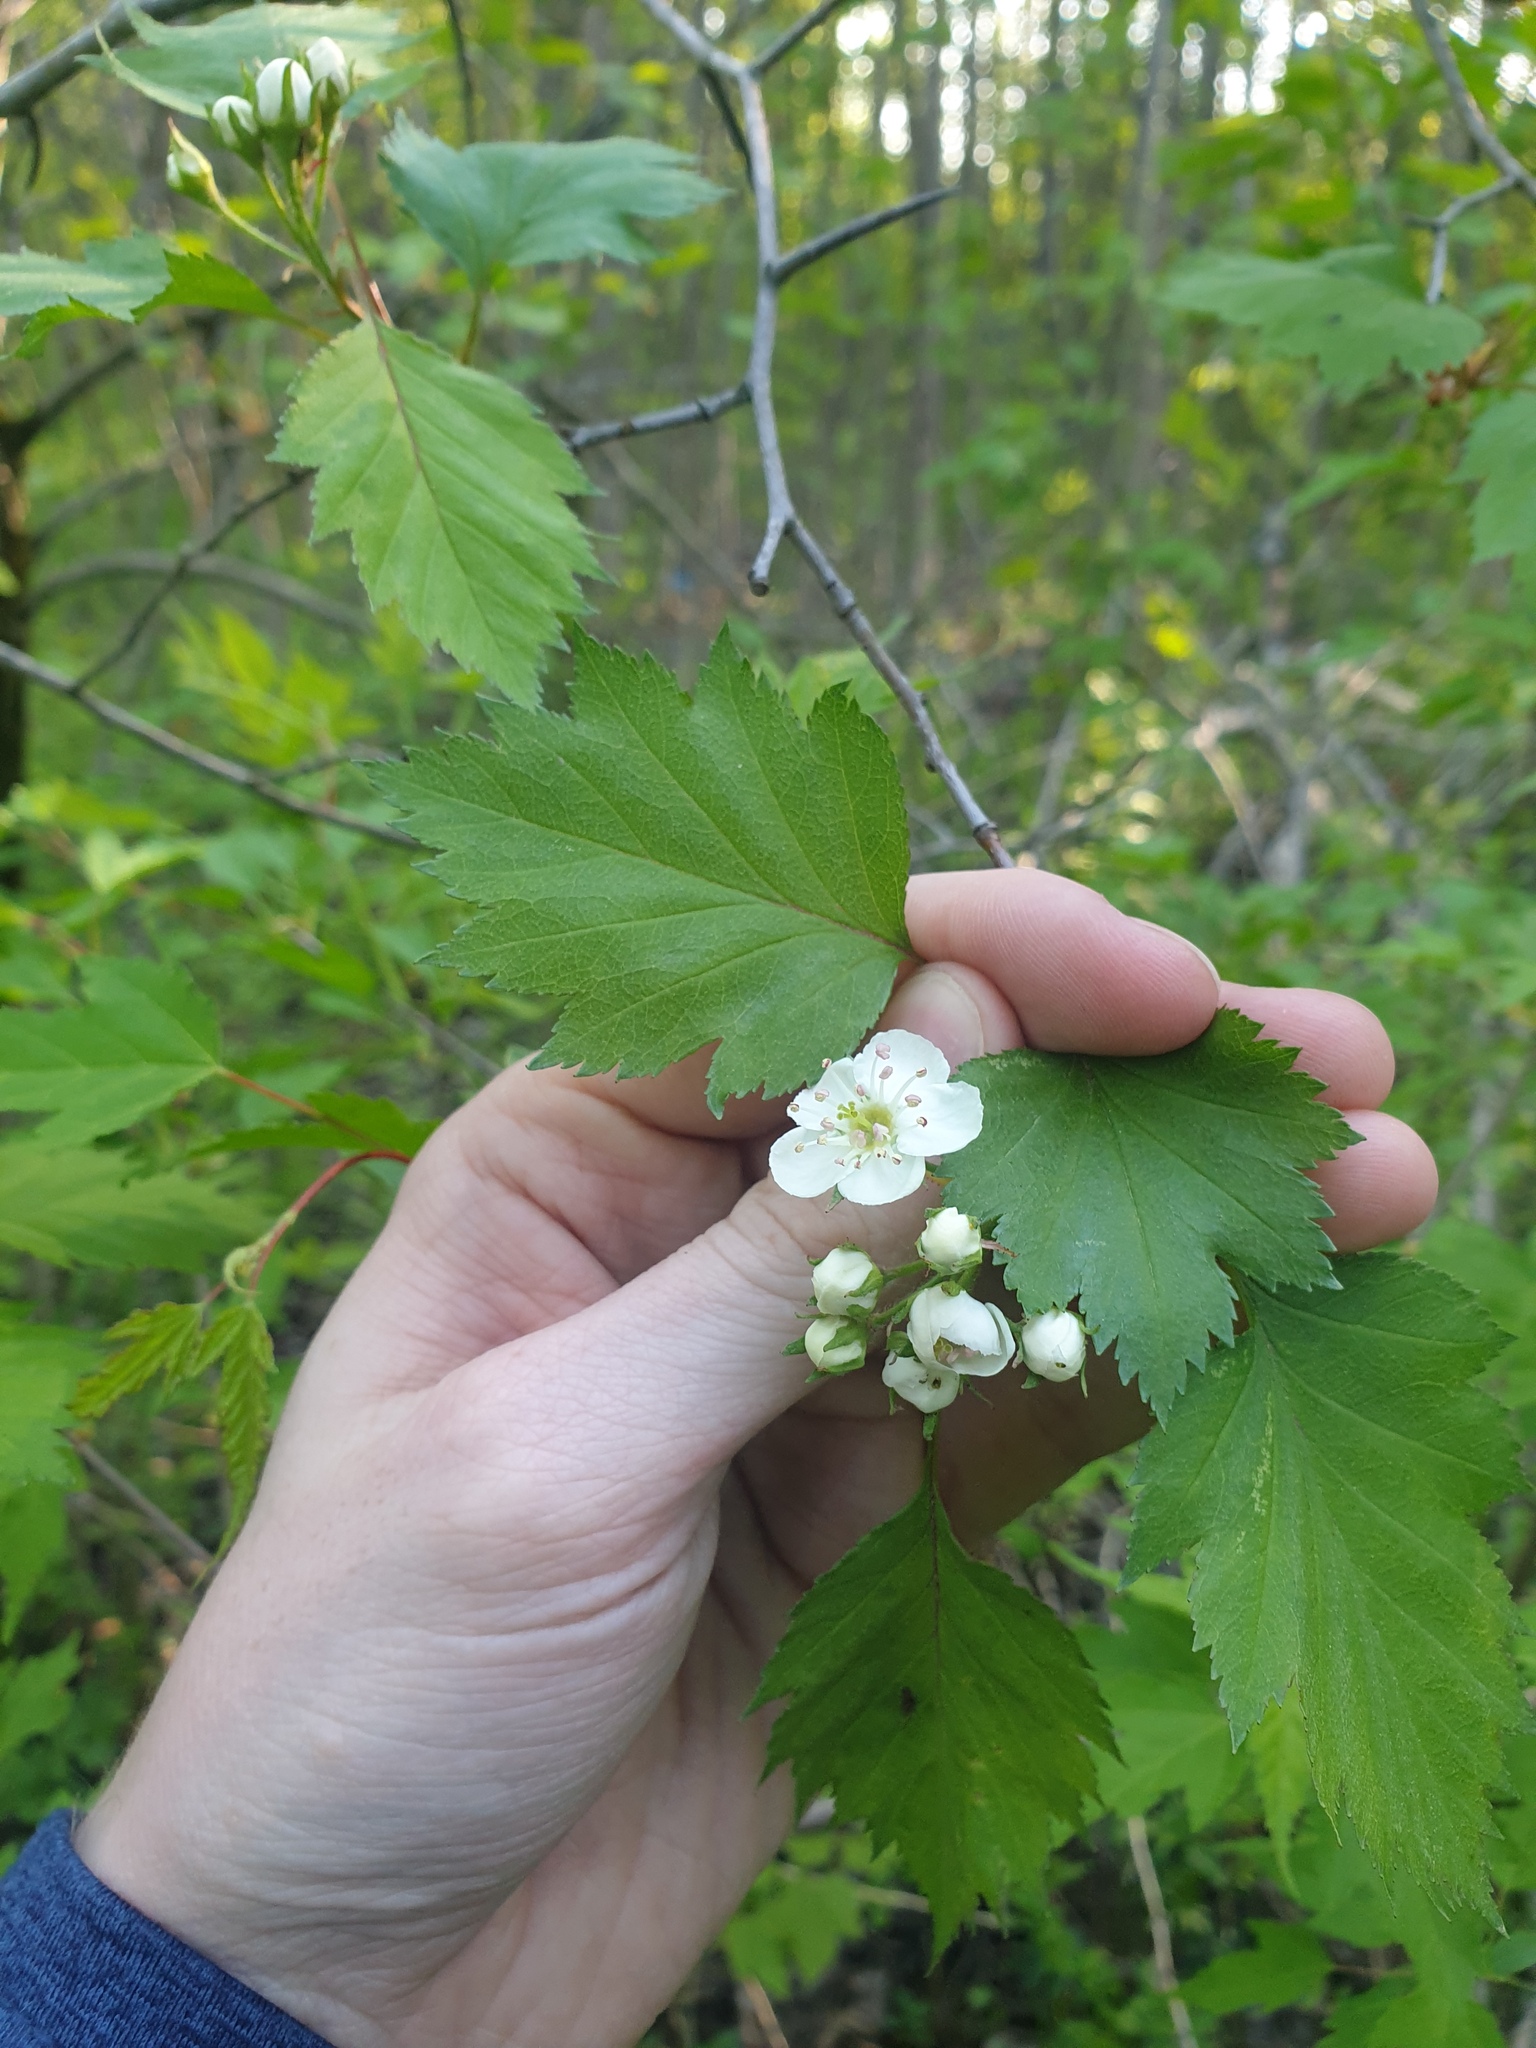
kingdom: Plantae
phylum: Tracheophyta
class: Magnoliopsida
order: Rosales
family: Rosaceae
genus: Crataegus
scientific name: Crataegus flabellata
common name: Bosc's hawthorn
